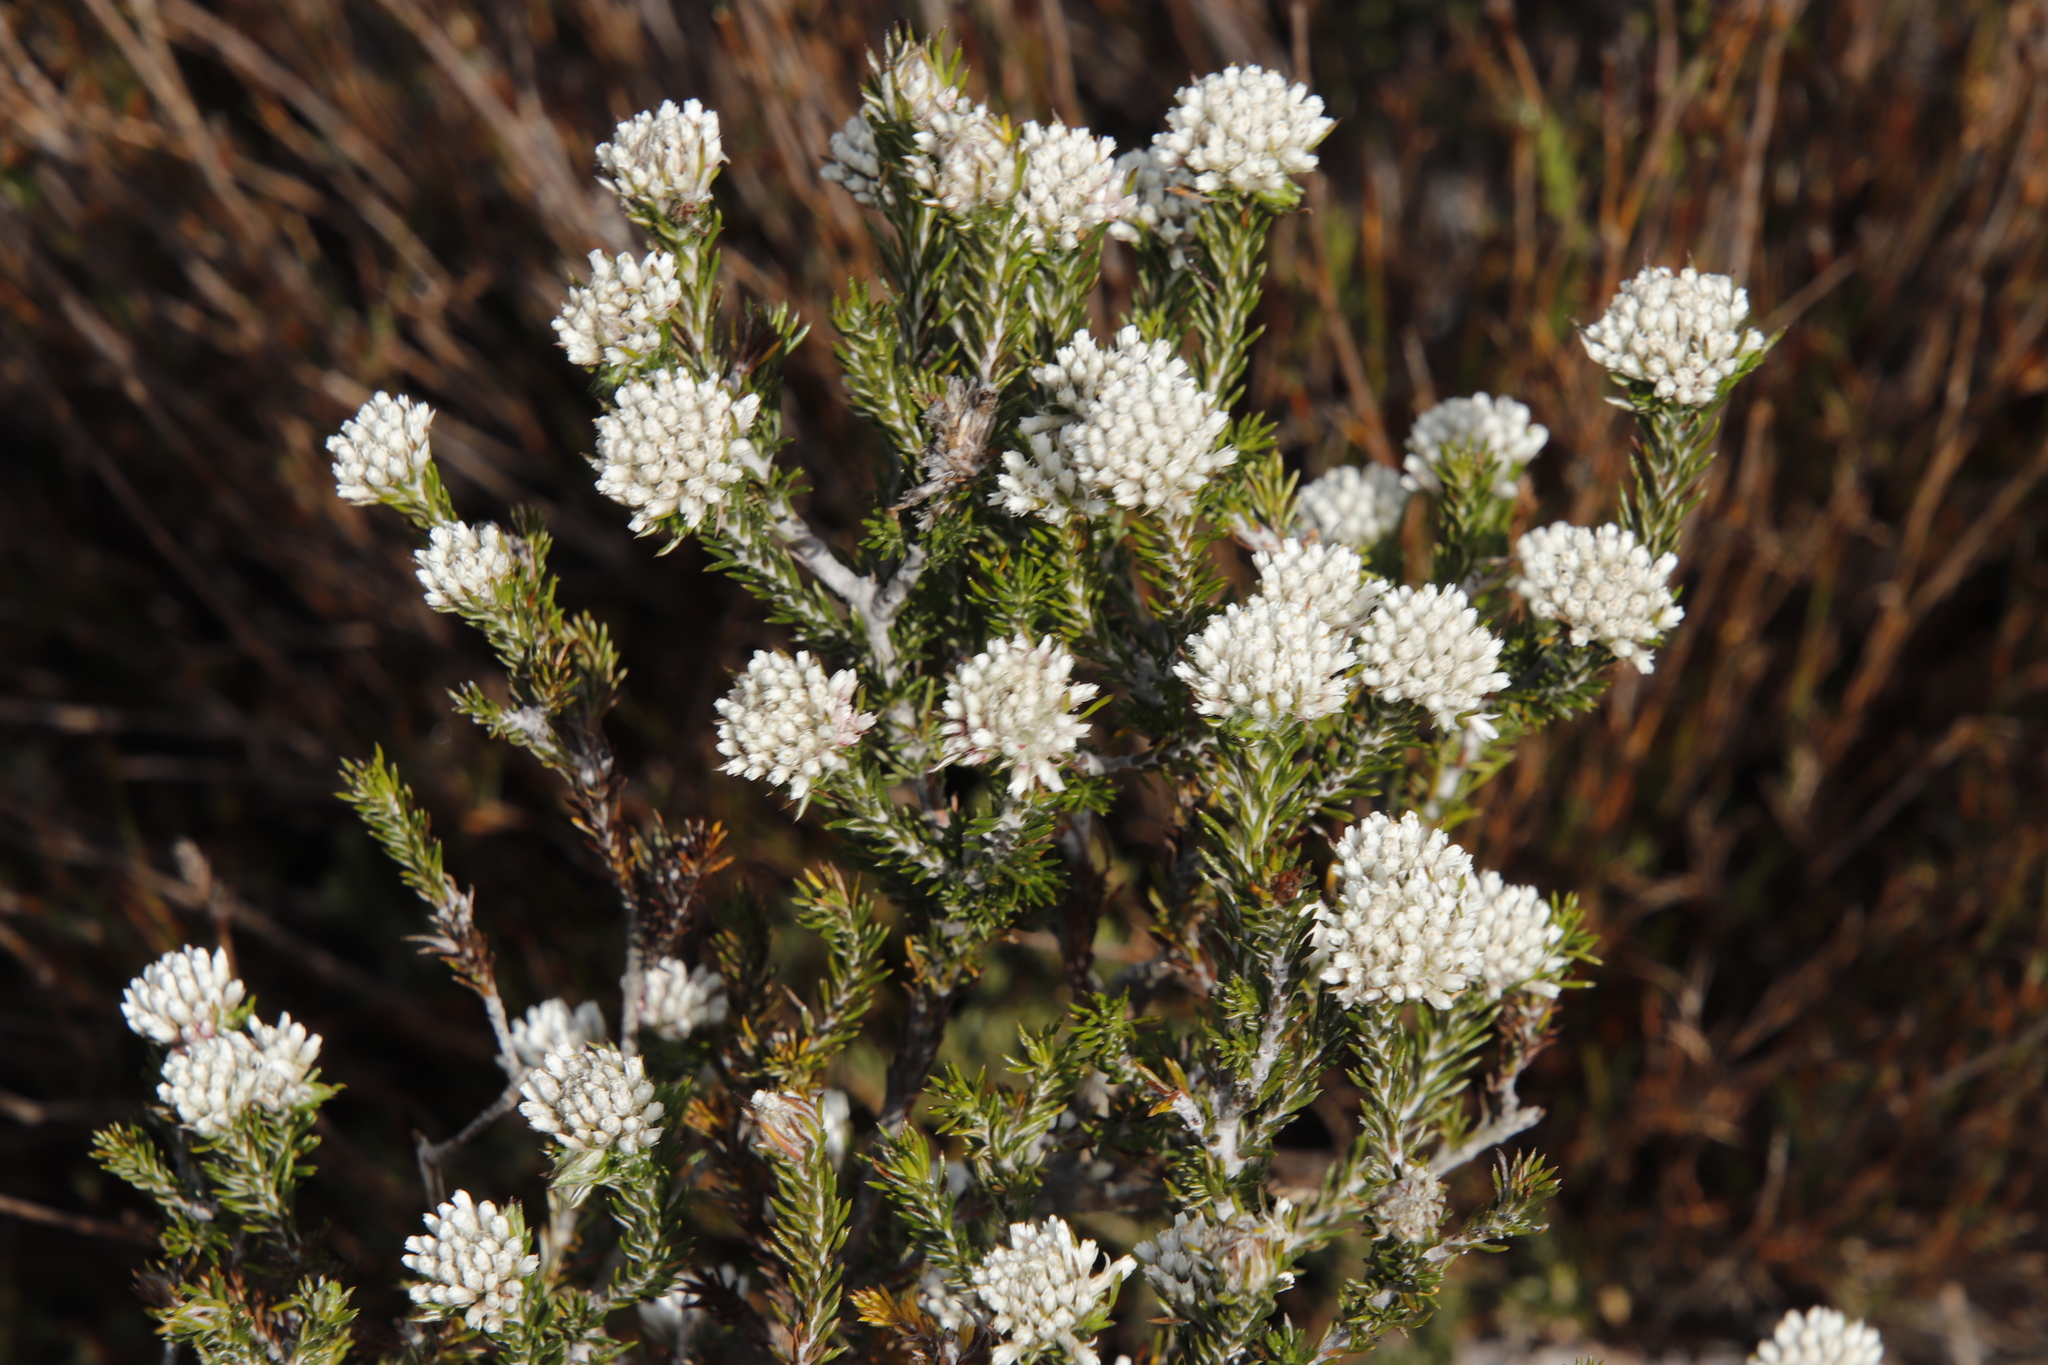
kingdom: Plantae
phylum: Tracheophyta
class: Magnoliopsida
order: Asterales
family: Asteraceae
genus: Metalasia
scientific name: Metalasia compacta
